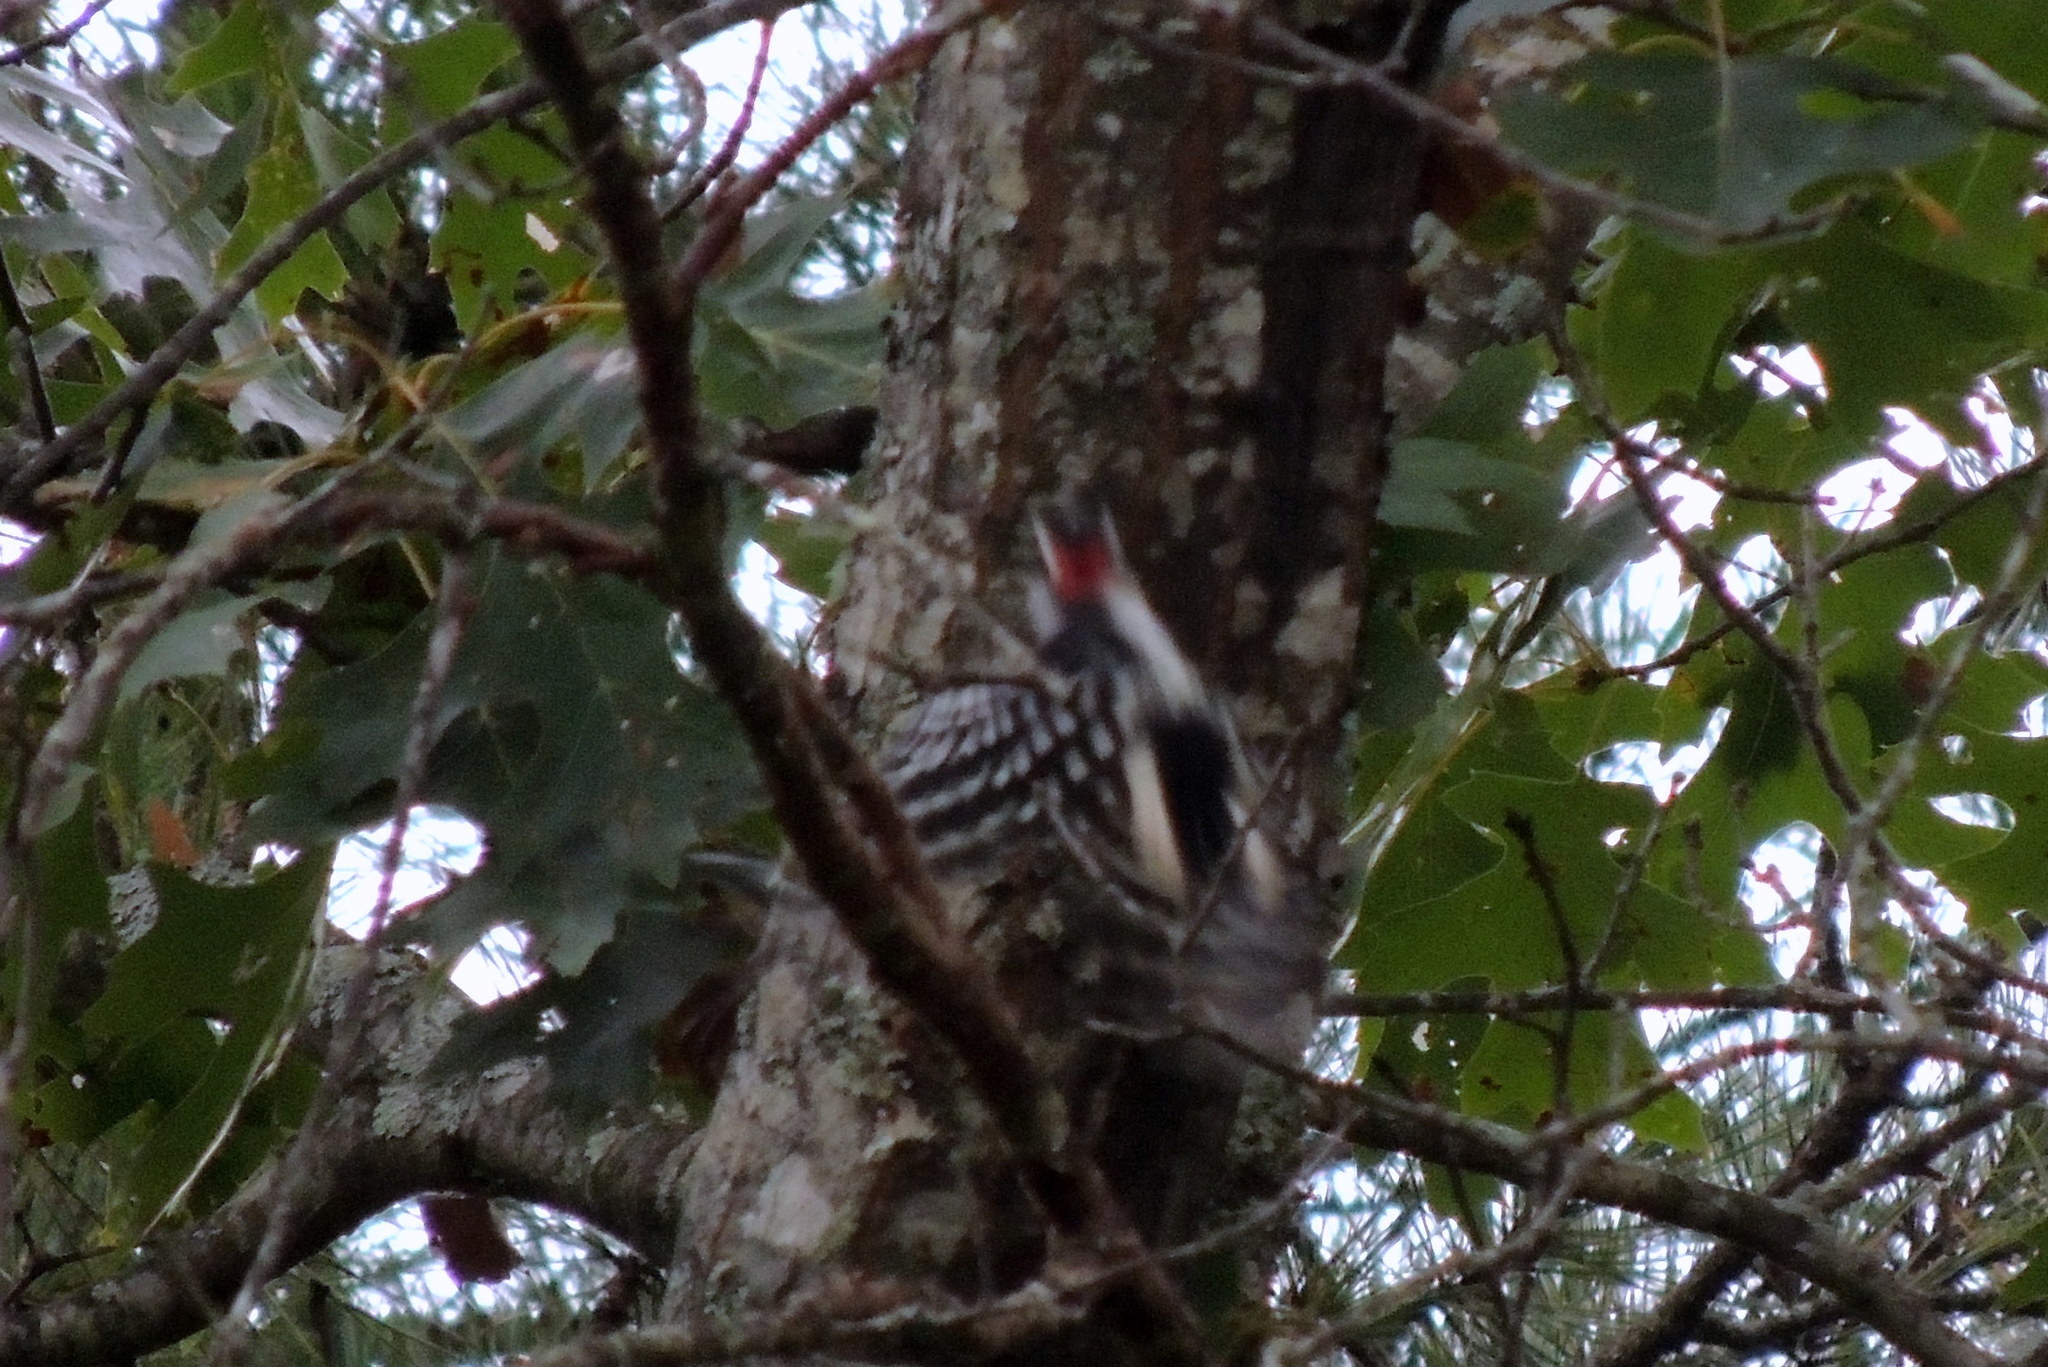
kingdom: Animalia
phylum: Chordata
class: Aves
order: Piciformes
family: Picidae
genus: Leuconotopicus
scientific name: Leuconotopicus villosus
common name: Hairy woodpecker
